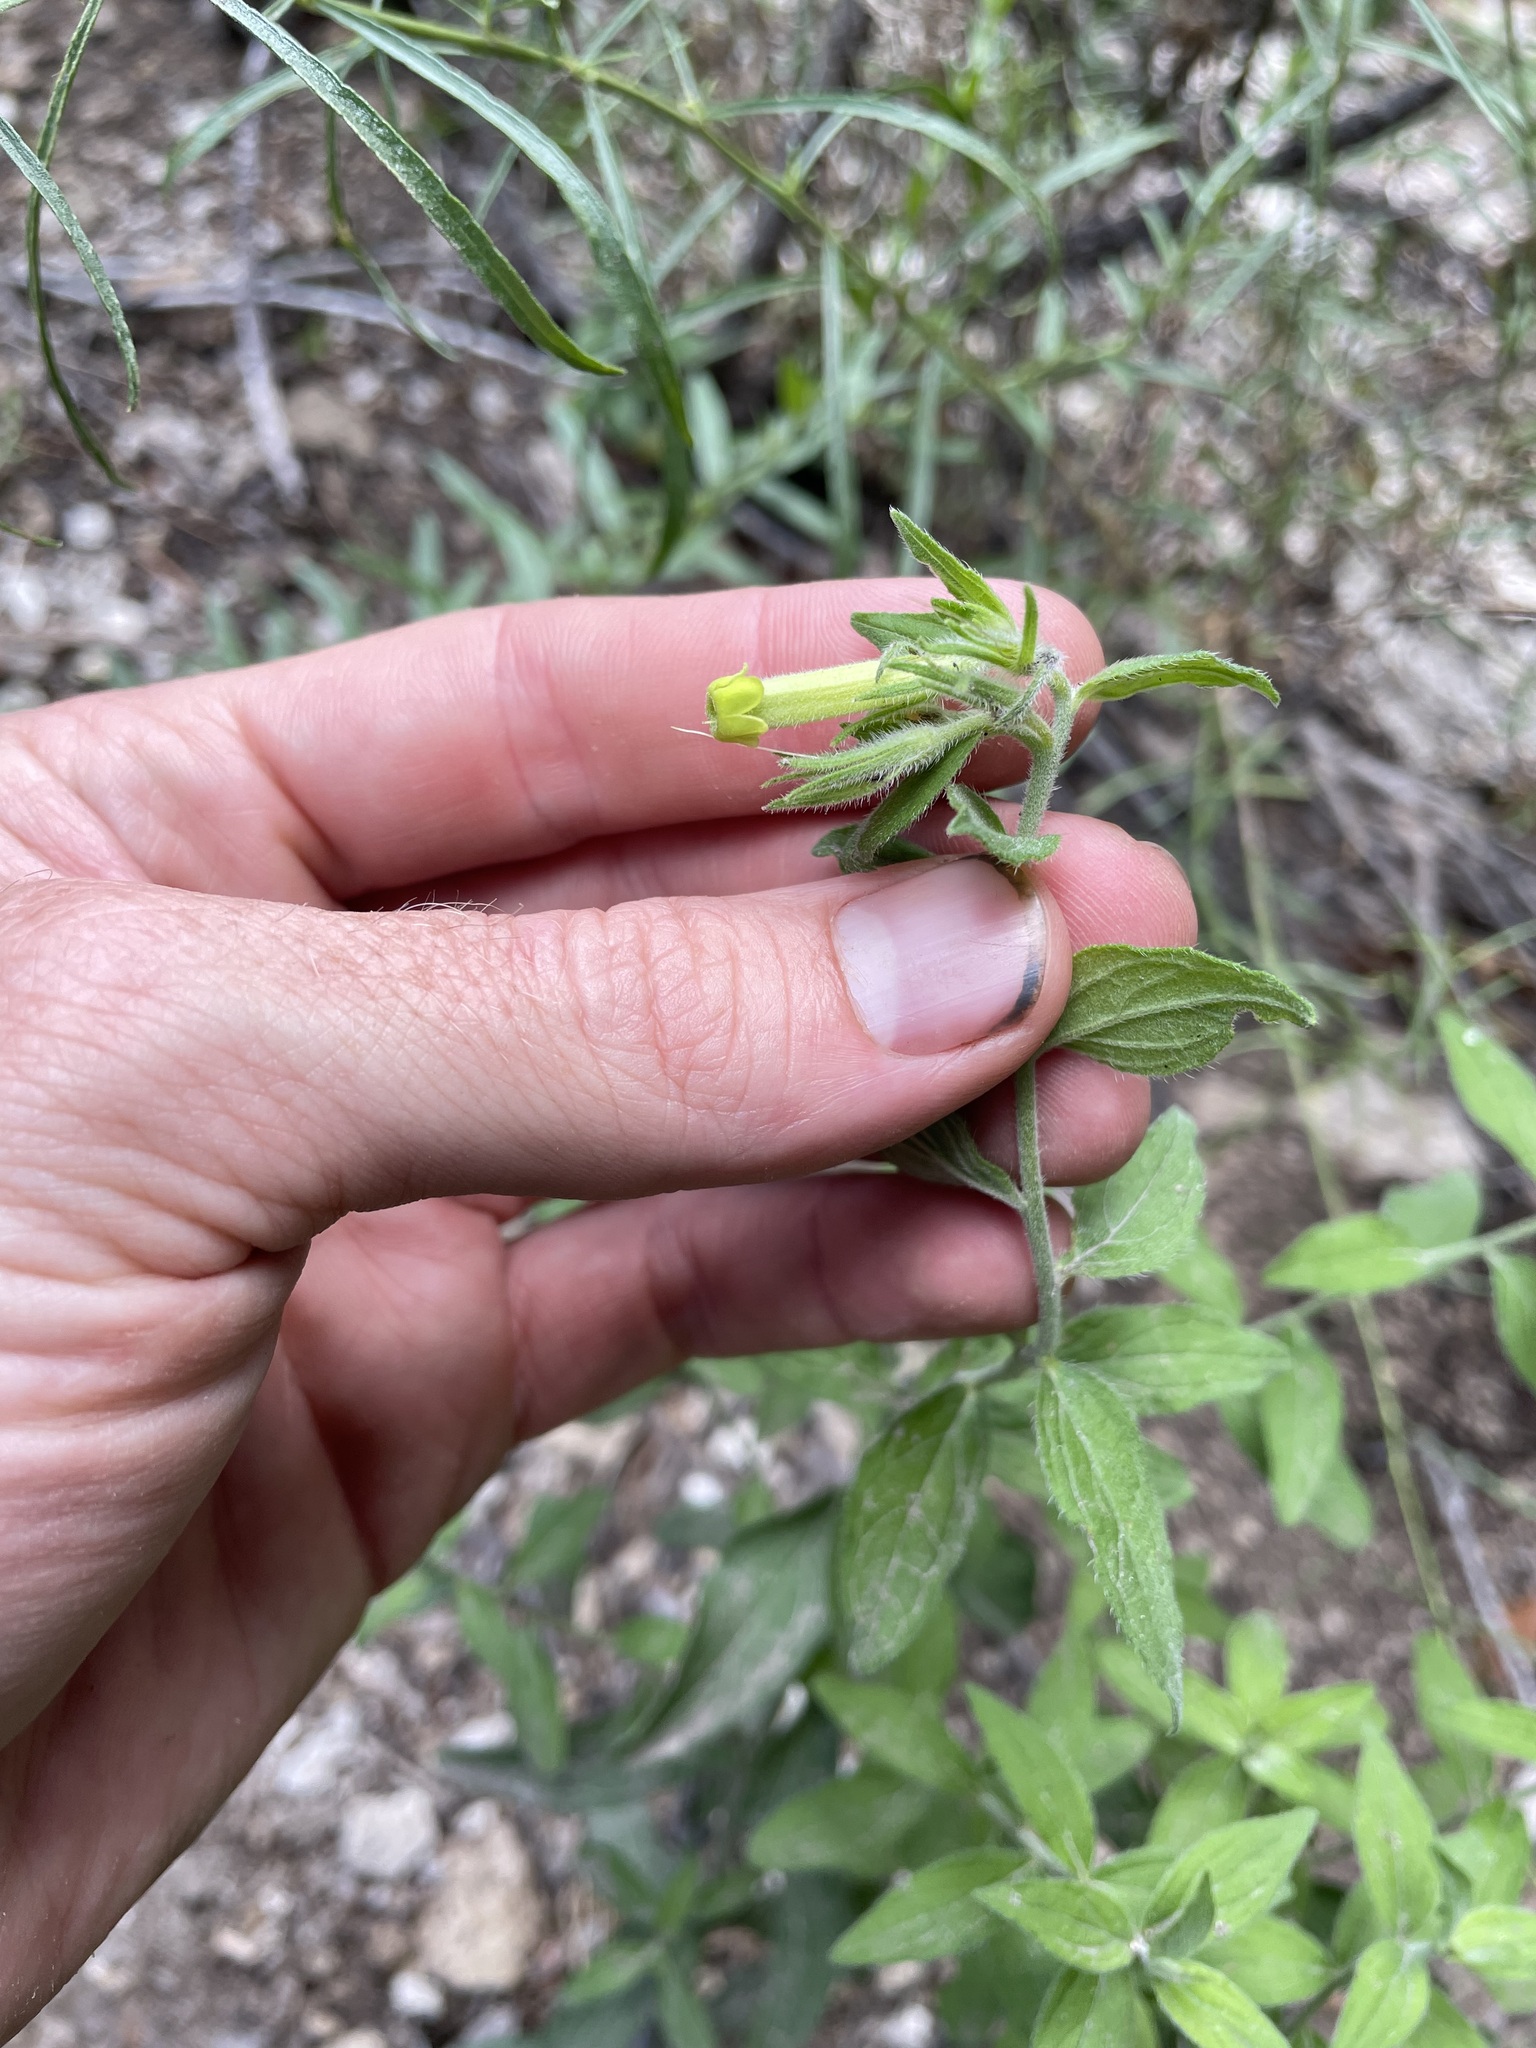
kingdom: Plantae
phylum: Tracheophyta
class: Magnoliopsida
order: Boraginales
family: Boraginaceae
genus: Lithospermum
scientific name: Lithospermum viride
